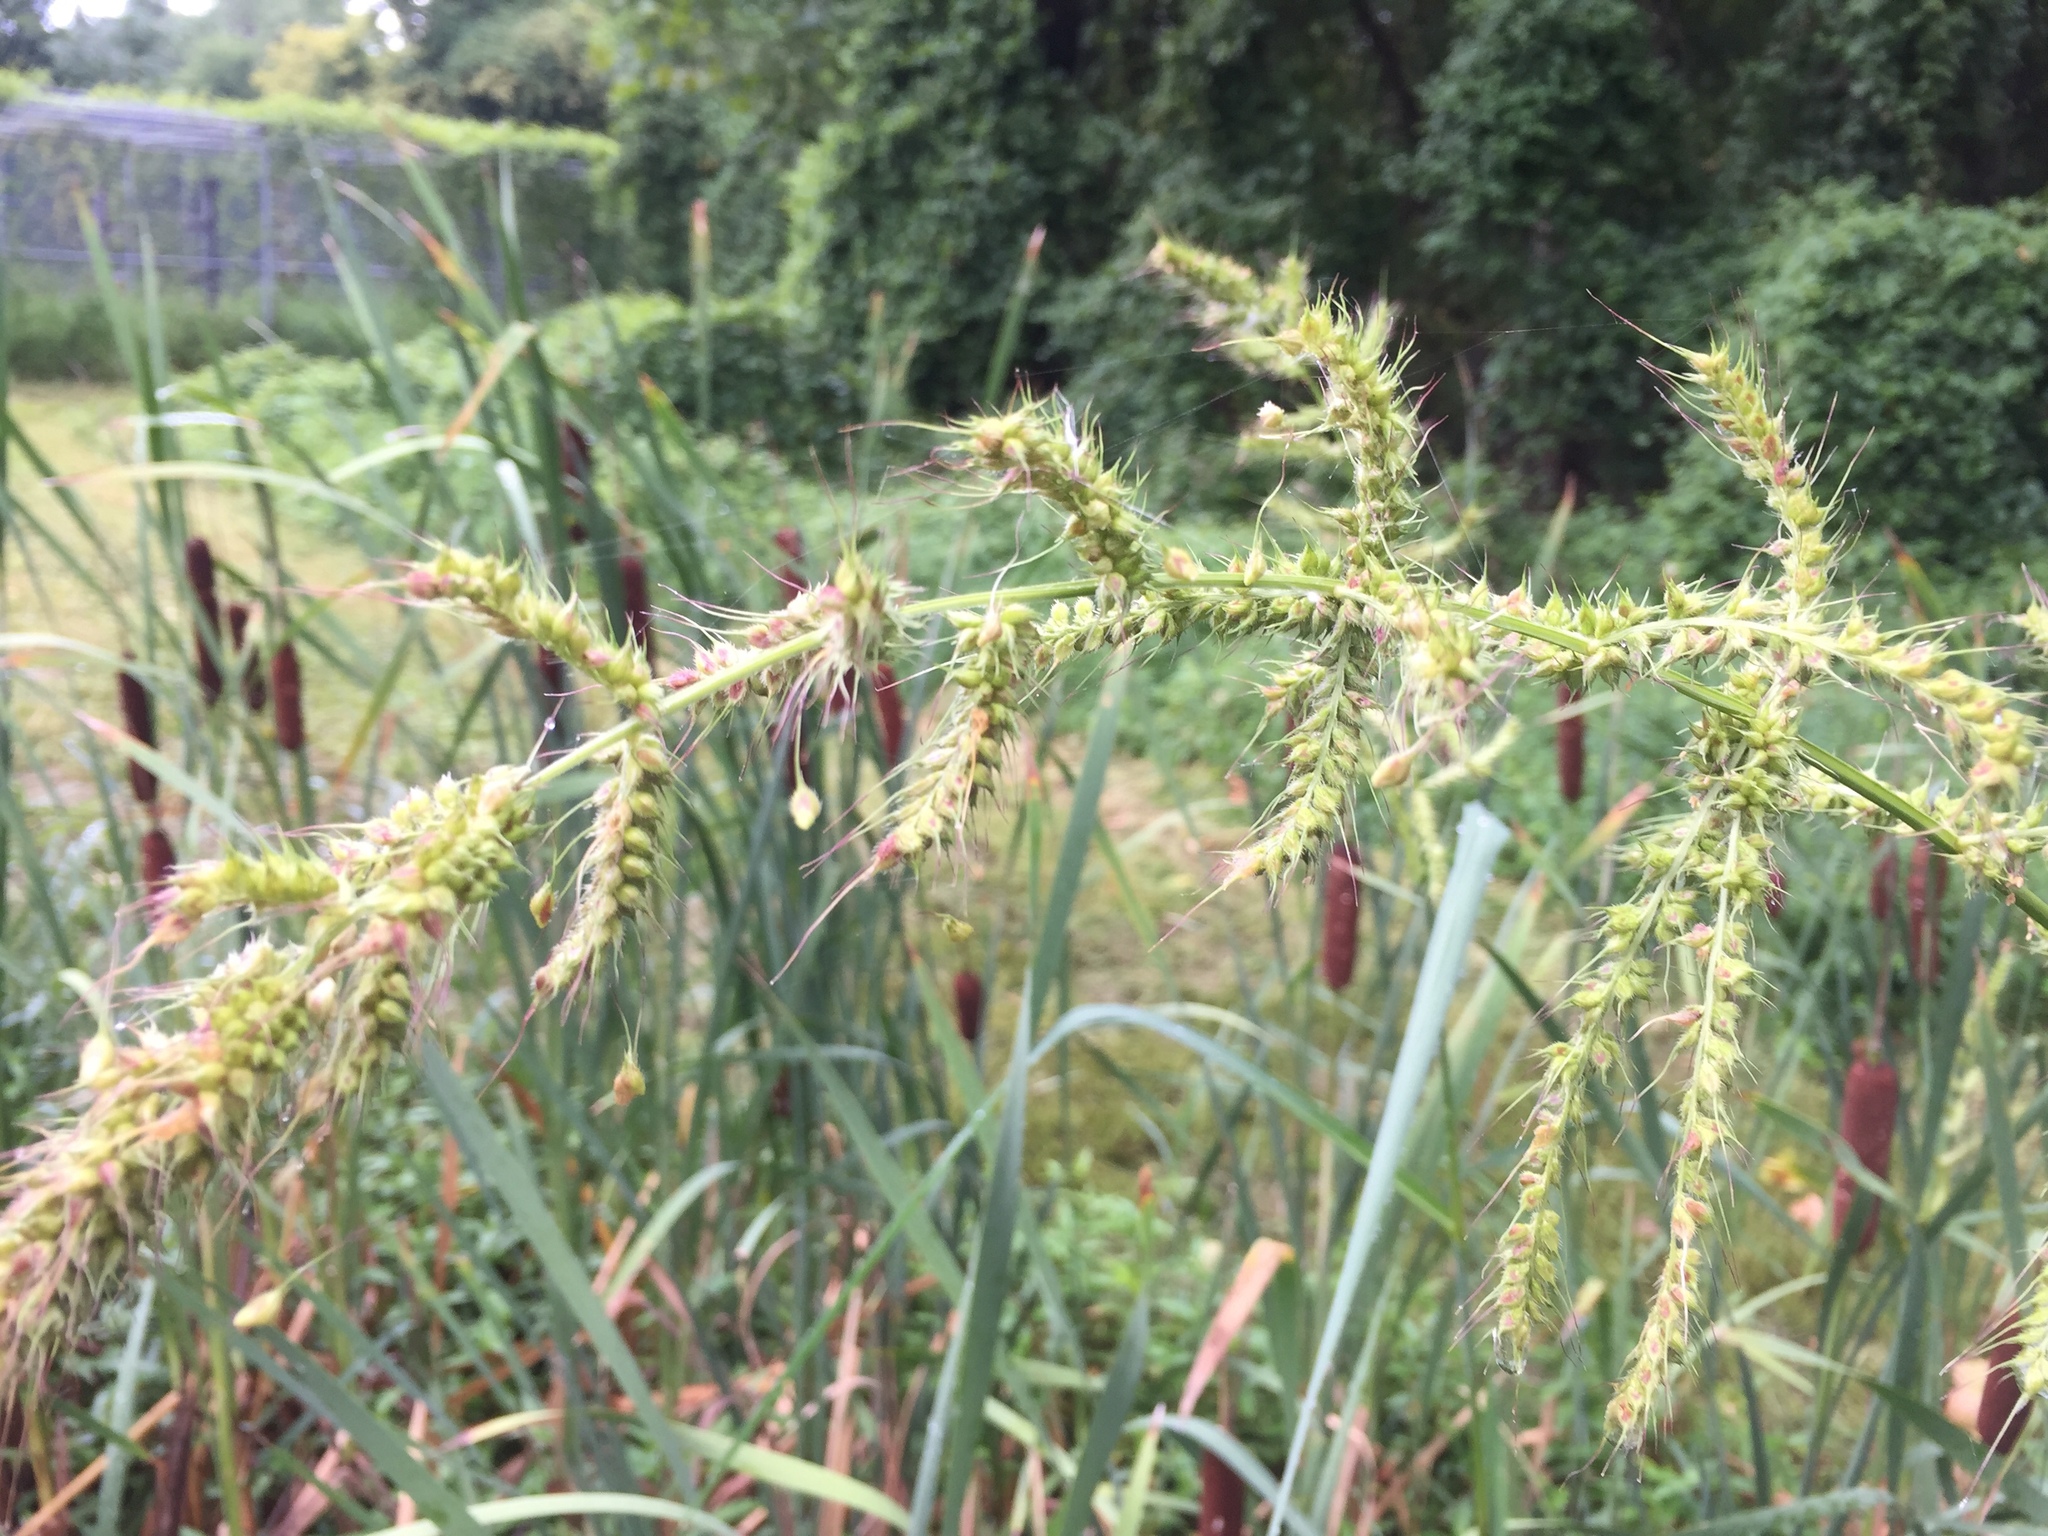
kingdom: Plantae
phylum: Tracheophyta
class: Liliopsida
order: Poales
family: Poaceae
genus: Echinochloa
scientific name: Echinochloa crus-galli
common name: Cockspur
